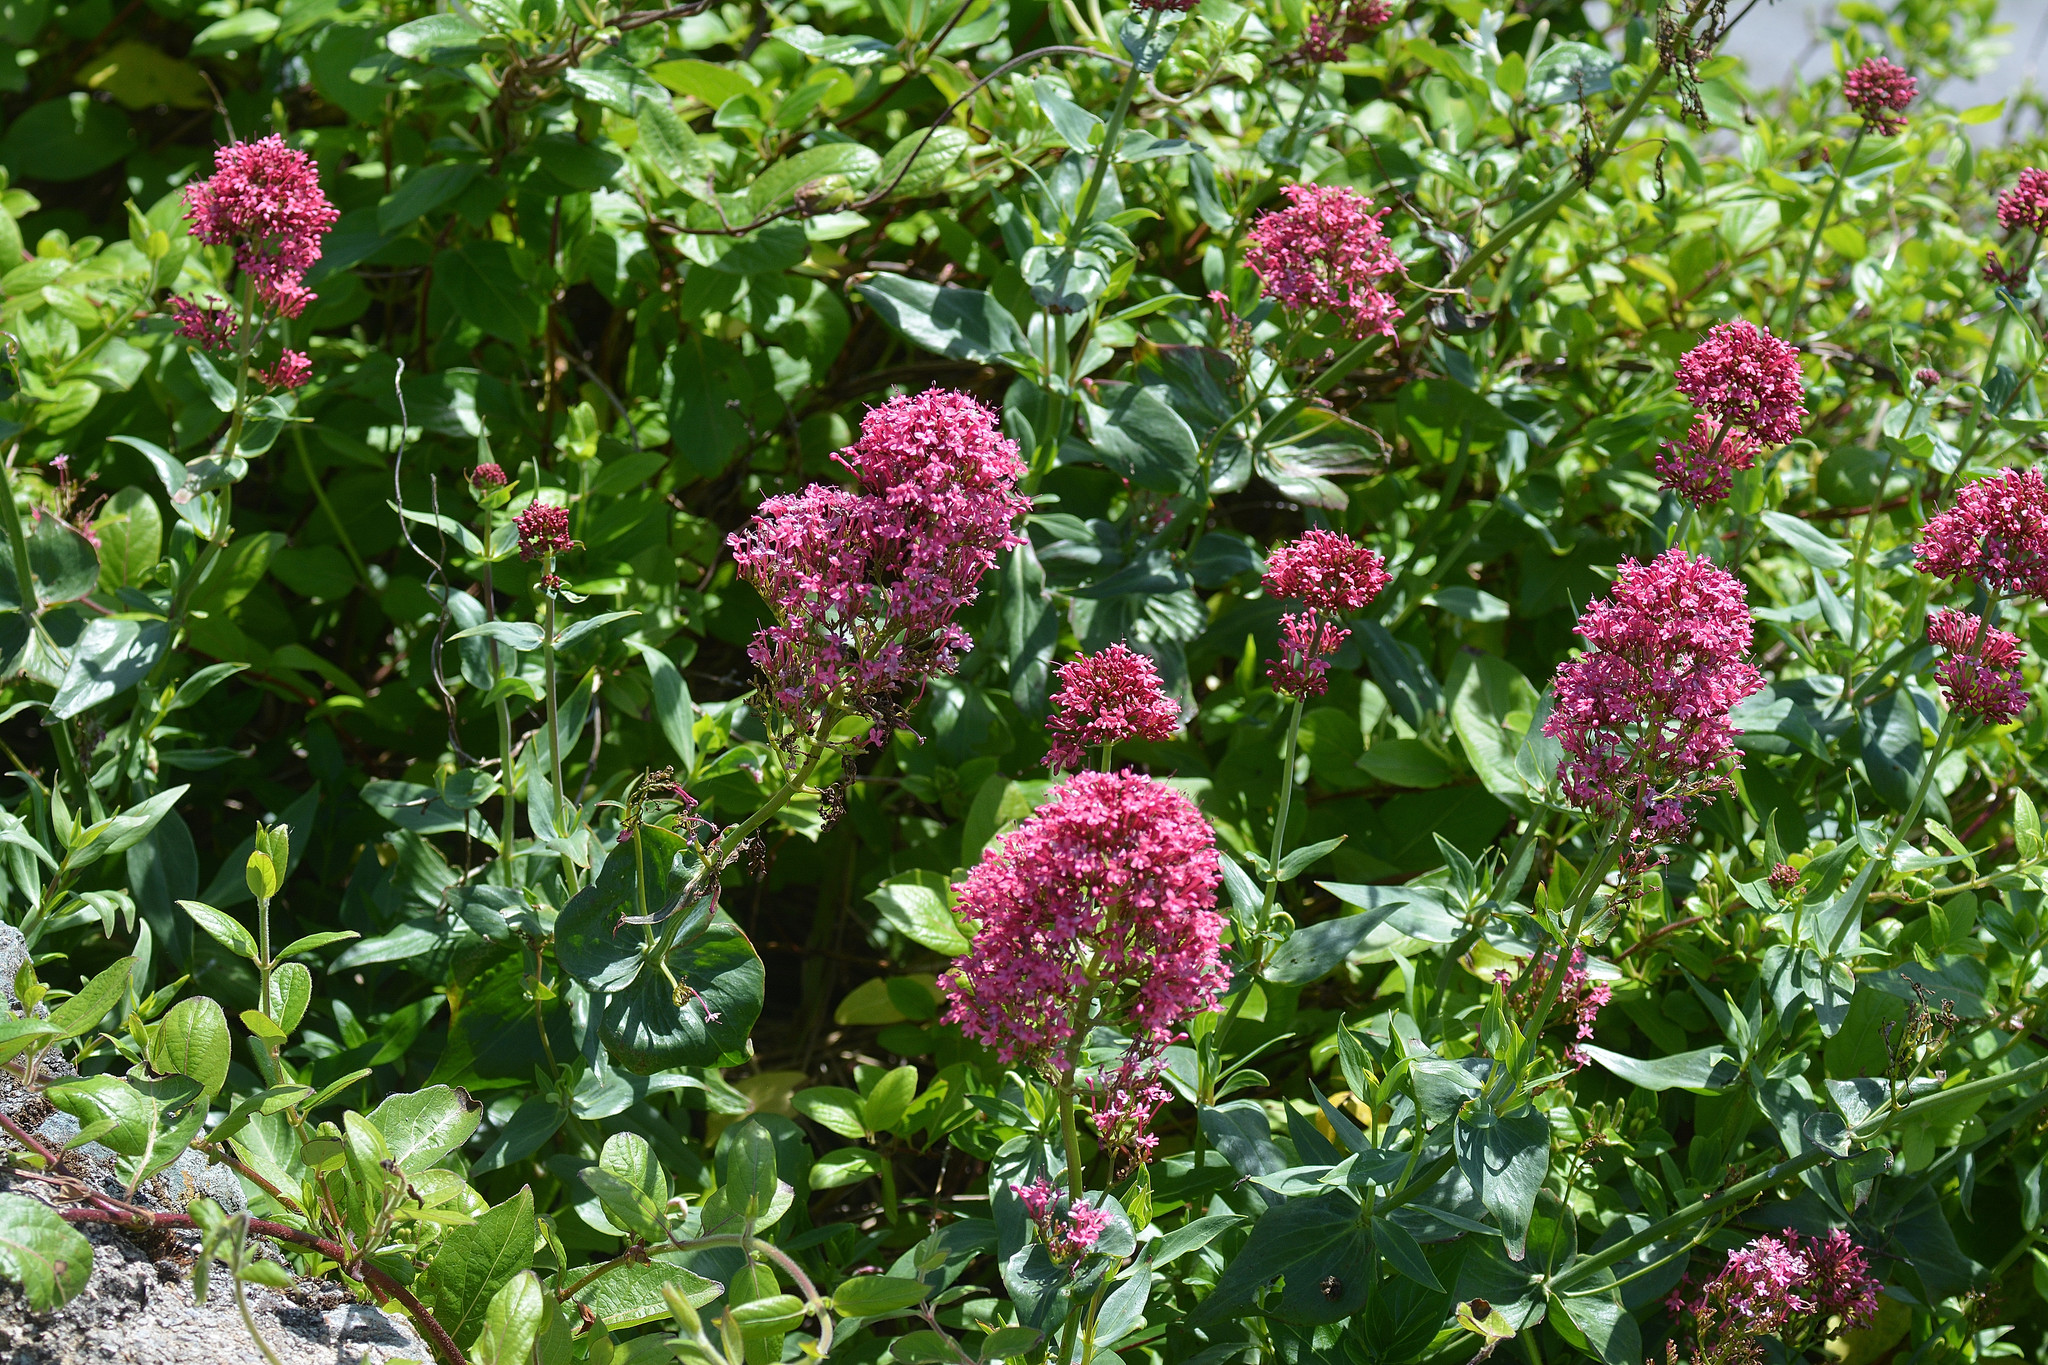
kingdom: Plantae
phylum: Tracheophyta
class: Magnoliopsida
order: Dipsacales
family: Caprifoliaceae
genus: Centranthus
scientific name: Centranthus ruber
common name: Red valerian
